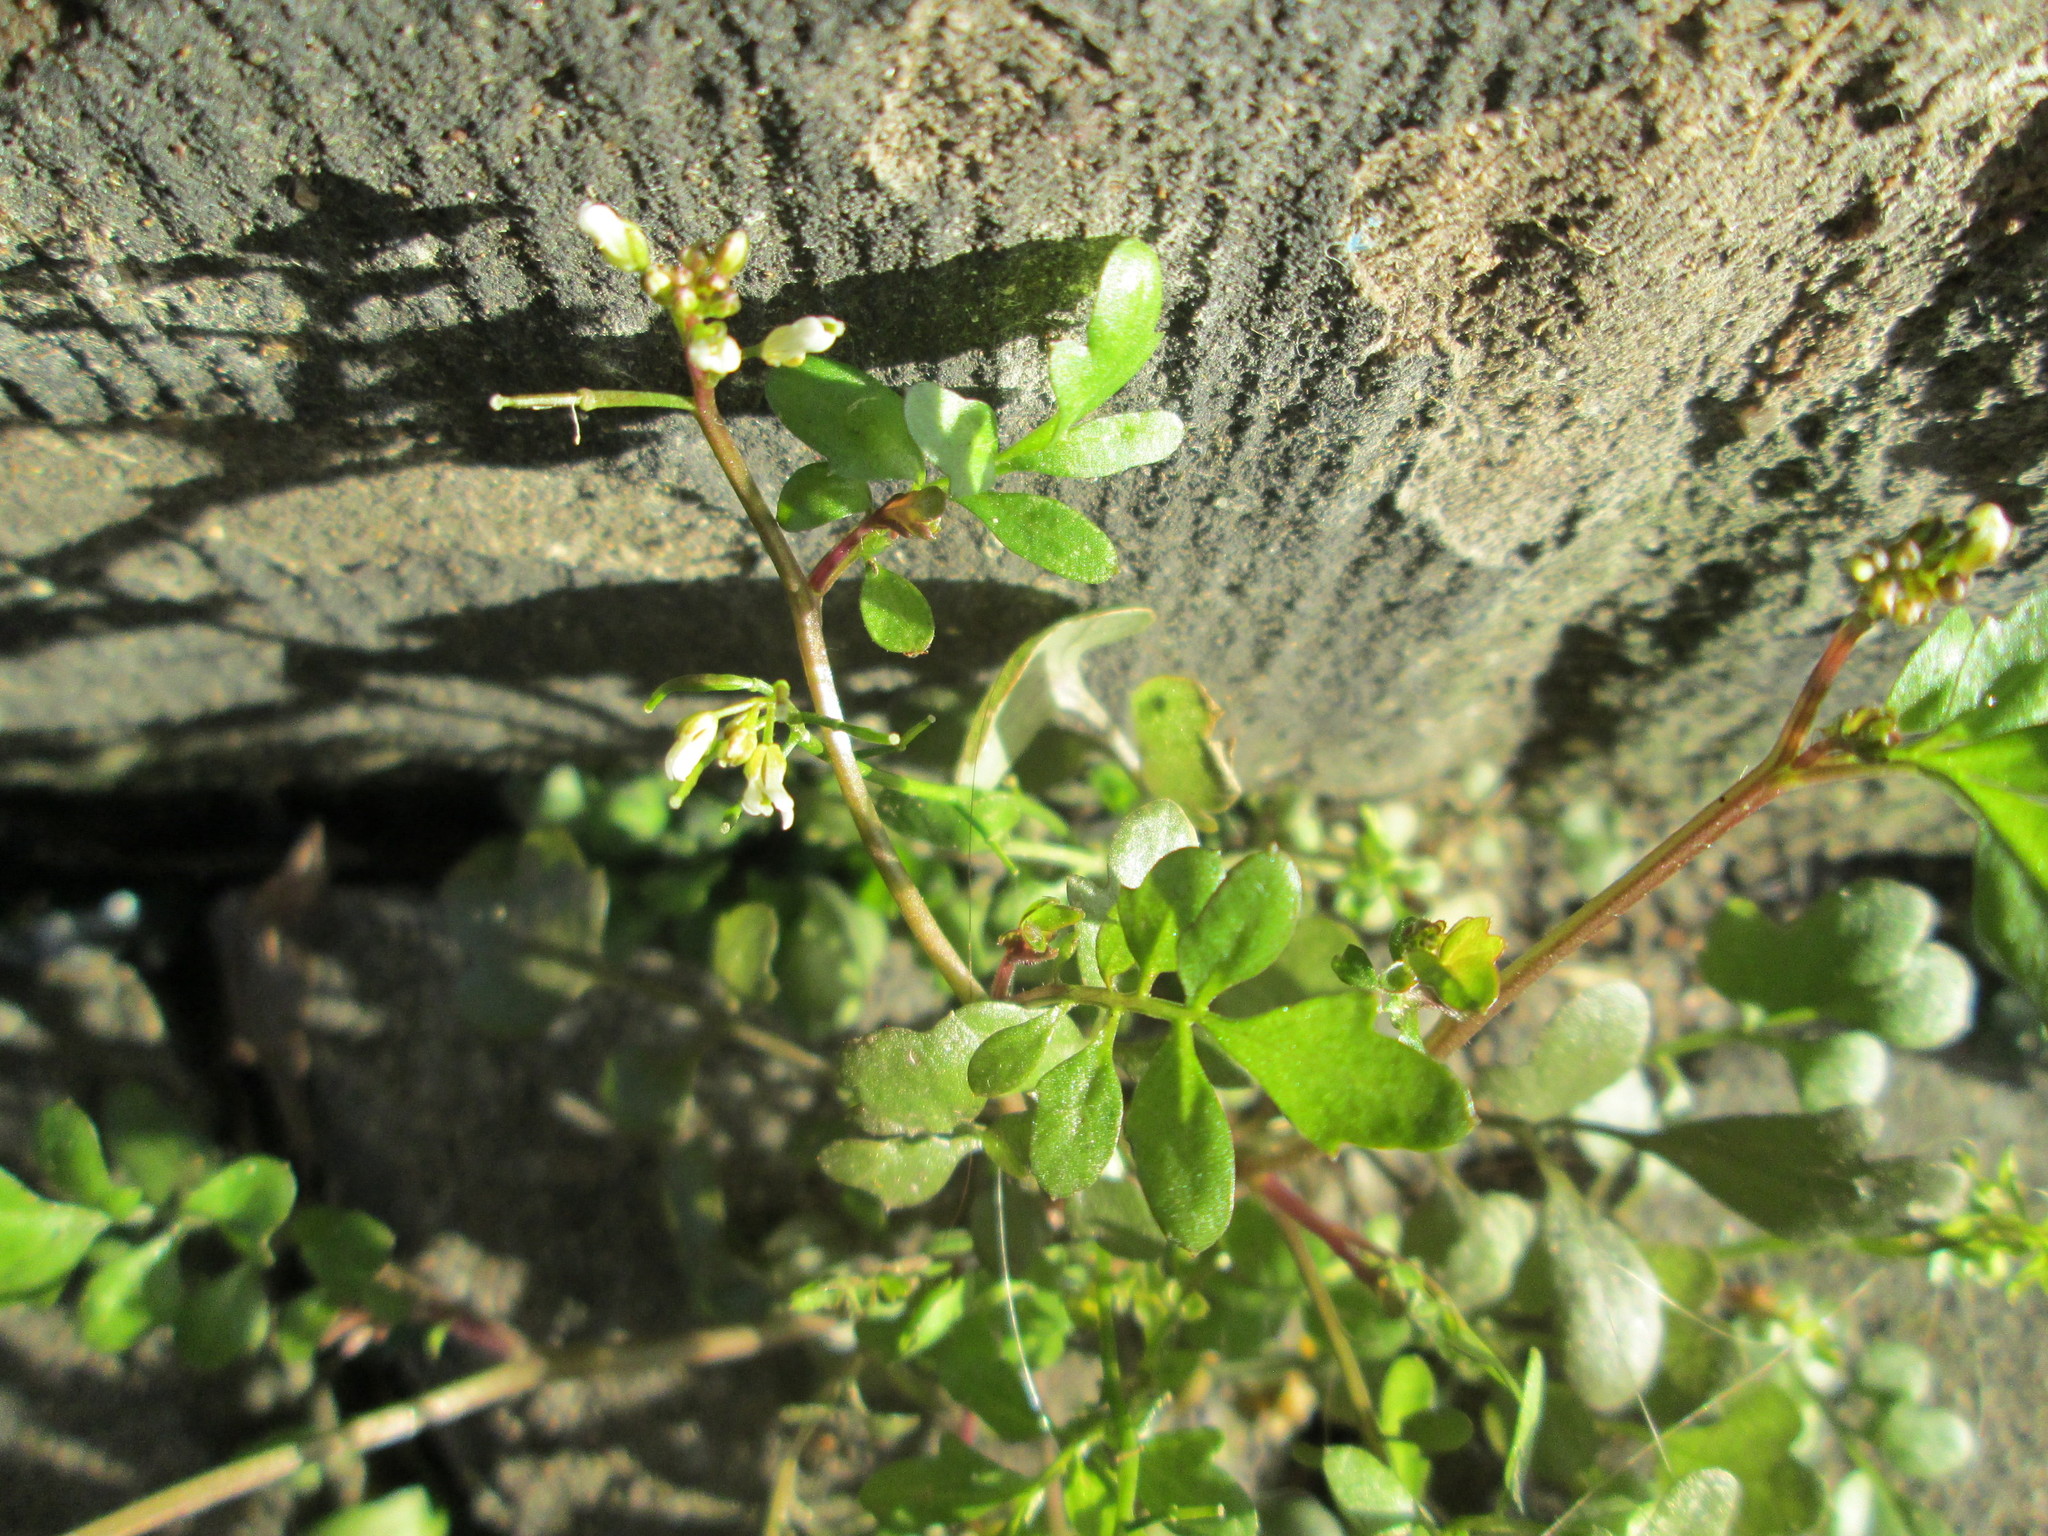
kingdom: Plantae
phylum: Tracheophyta
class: Magnoliopsida
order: Brassicales
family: Brassicaceae
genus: Cardamine
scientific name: Cardamine hirsuta
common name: Hairy bittercress
